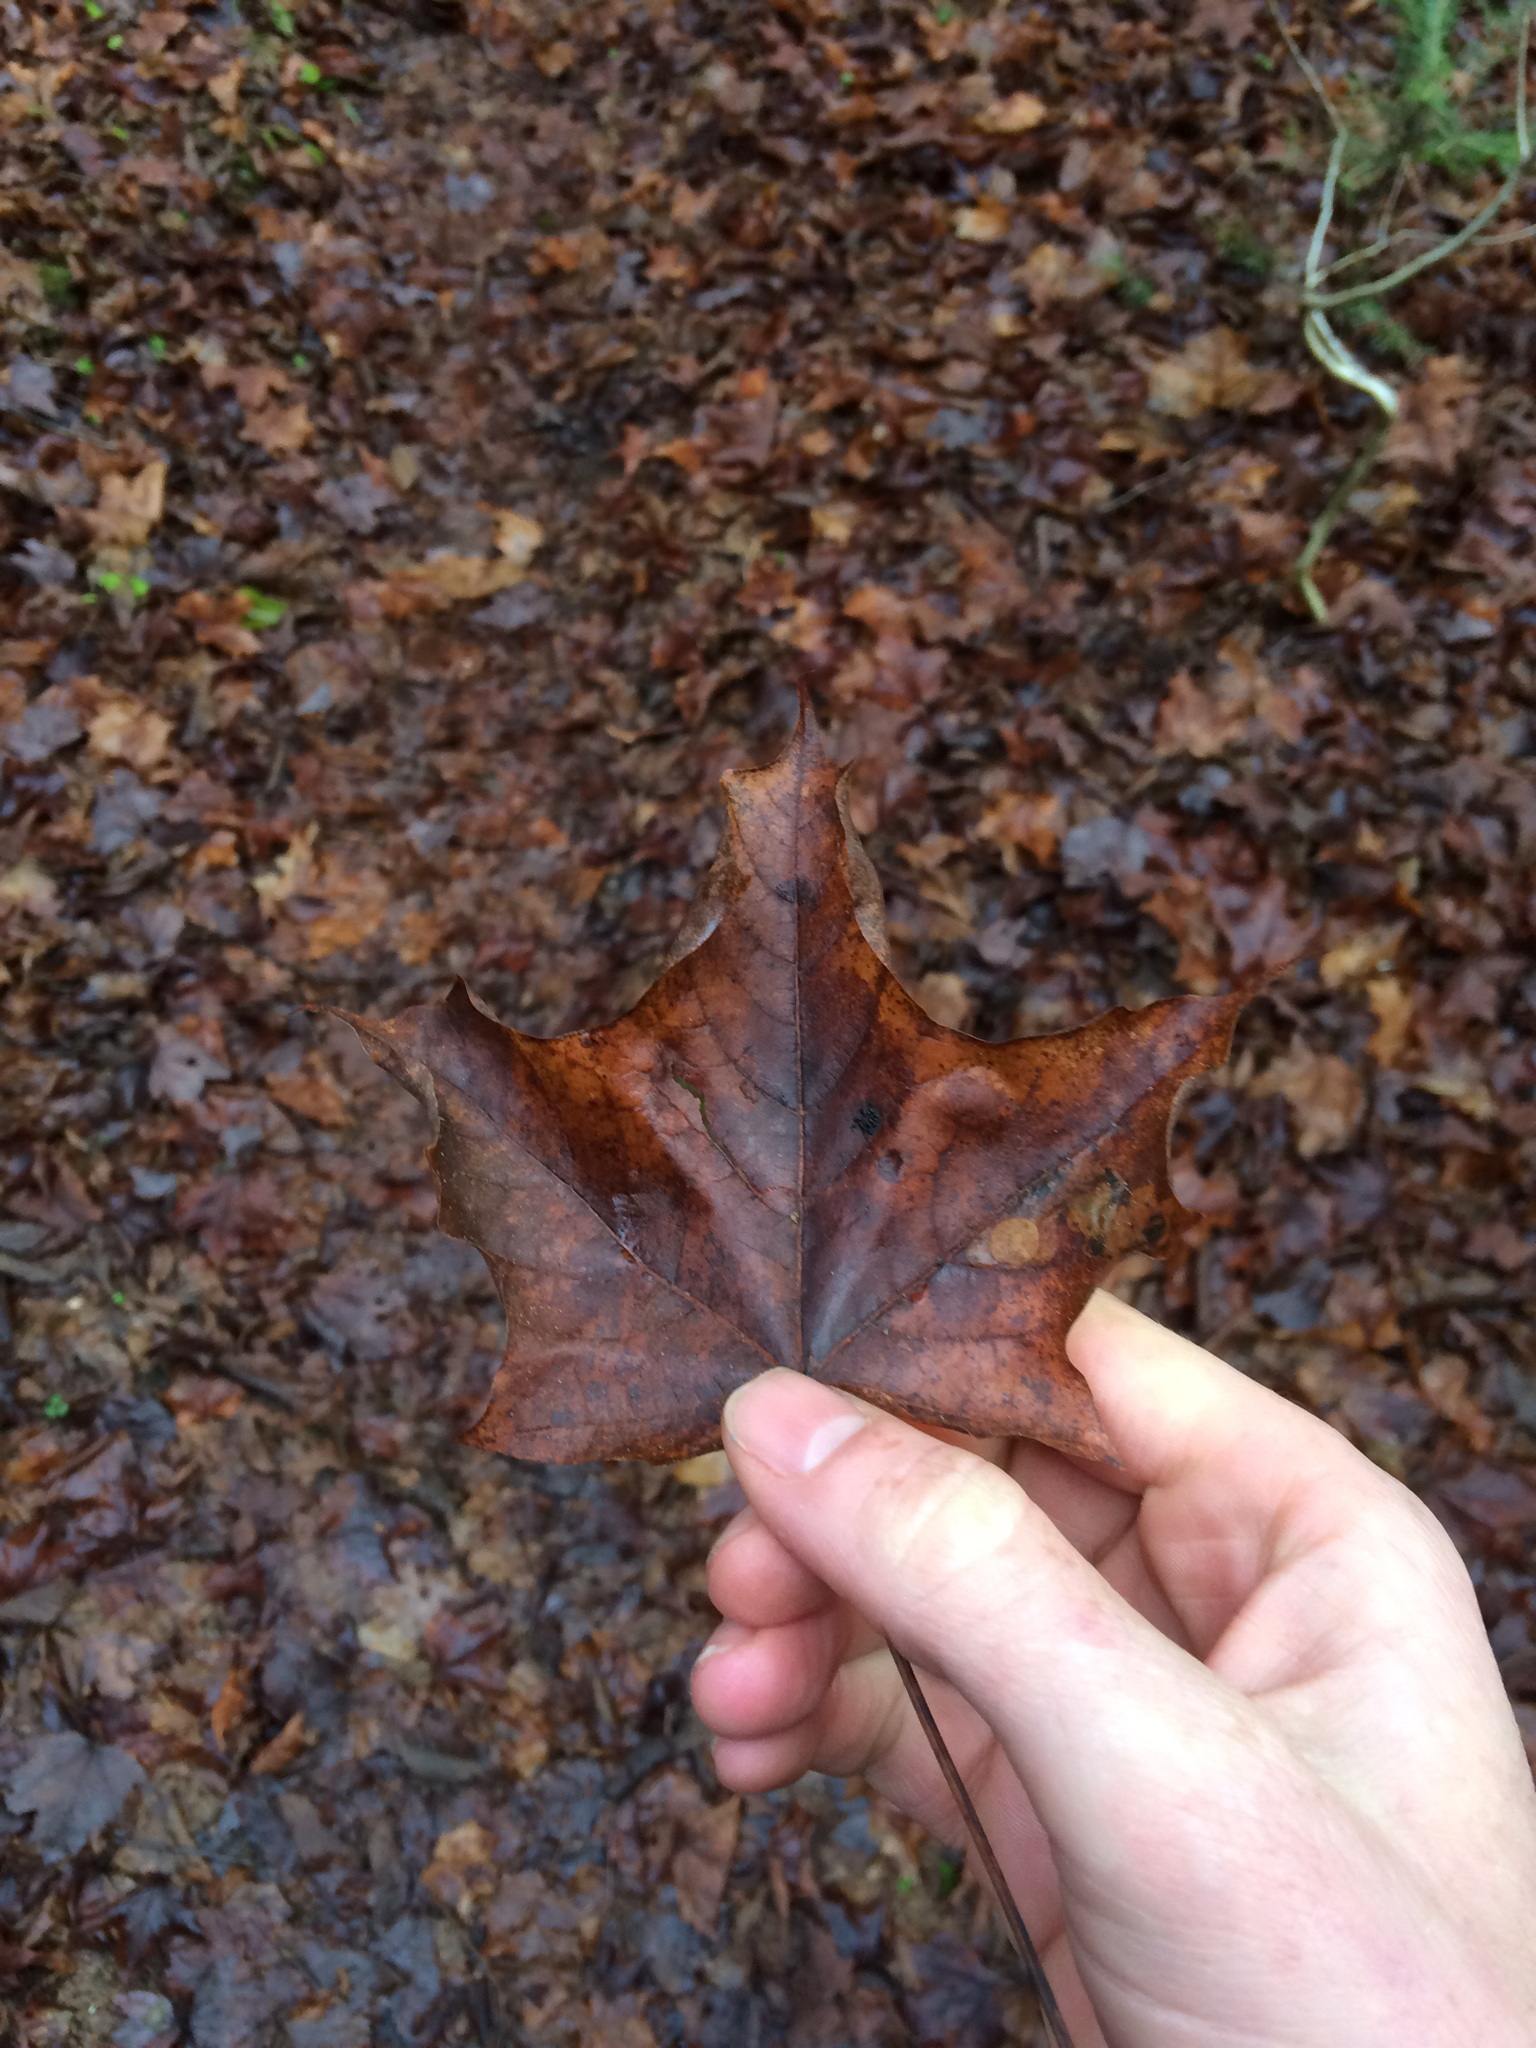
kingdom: Plantae
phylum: Tracheophyta
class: Magnoliopsida
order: Sapindales
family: Sapindaceae
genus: Acer
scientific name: Acer saccharum
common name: Sugar maple
